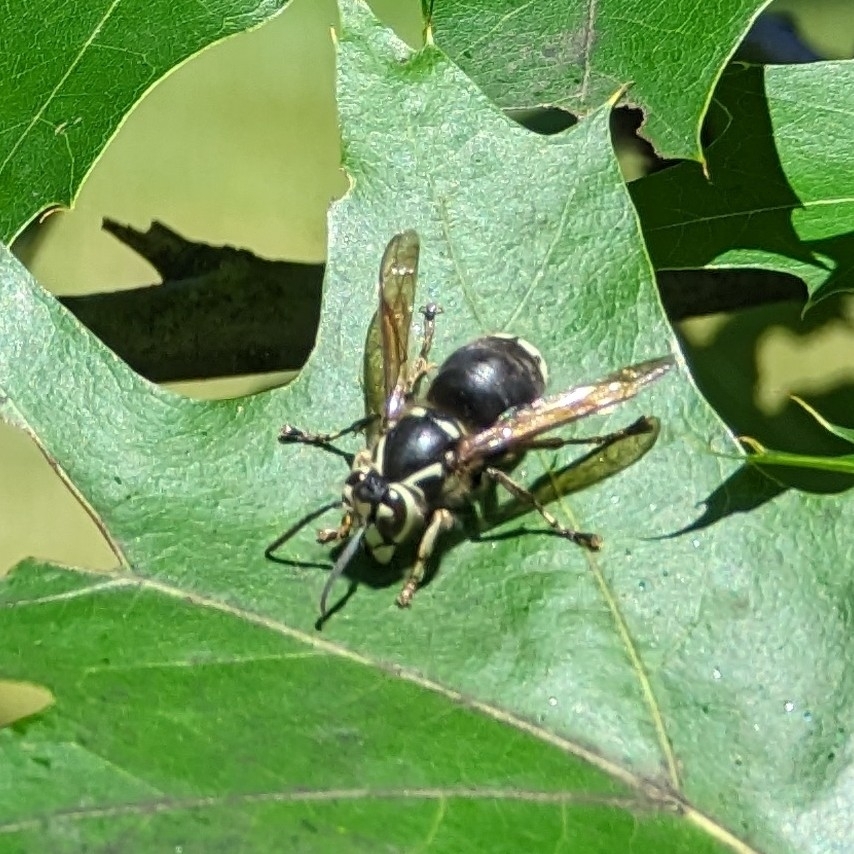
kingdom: Animalia
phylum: Arthropoda
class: Insecta
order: Hymenoptera
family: Vespidae
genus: Dolichovespula
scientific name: Dolichovespula maculata
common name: Bald-faced hornet
